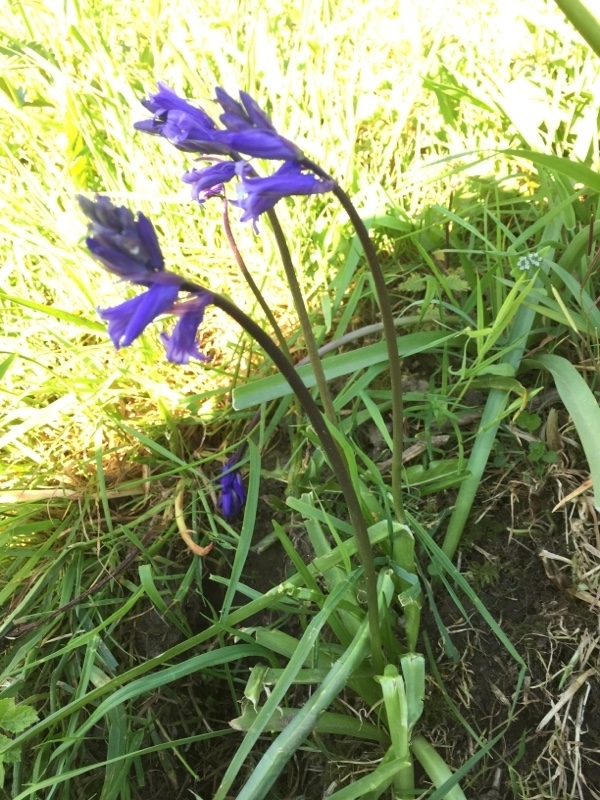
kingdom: Plantae
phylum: Tracheophyta
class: Liliopsida
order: Asparagales
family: Asparagaceae
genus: Hyacinthoides
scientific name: Hyacinthoides non-scripta
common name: Bluebell
